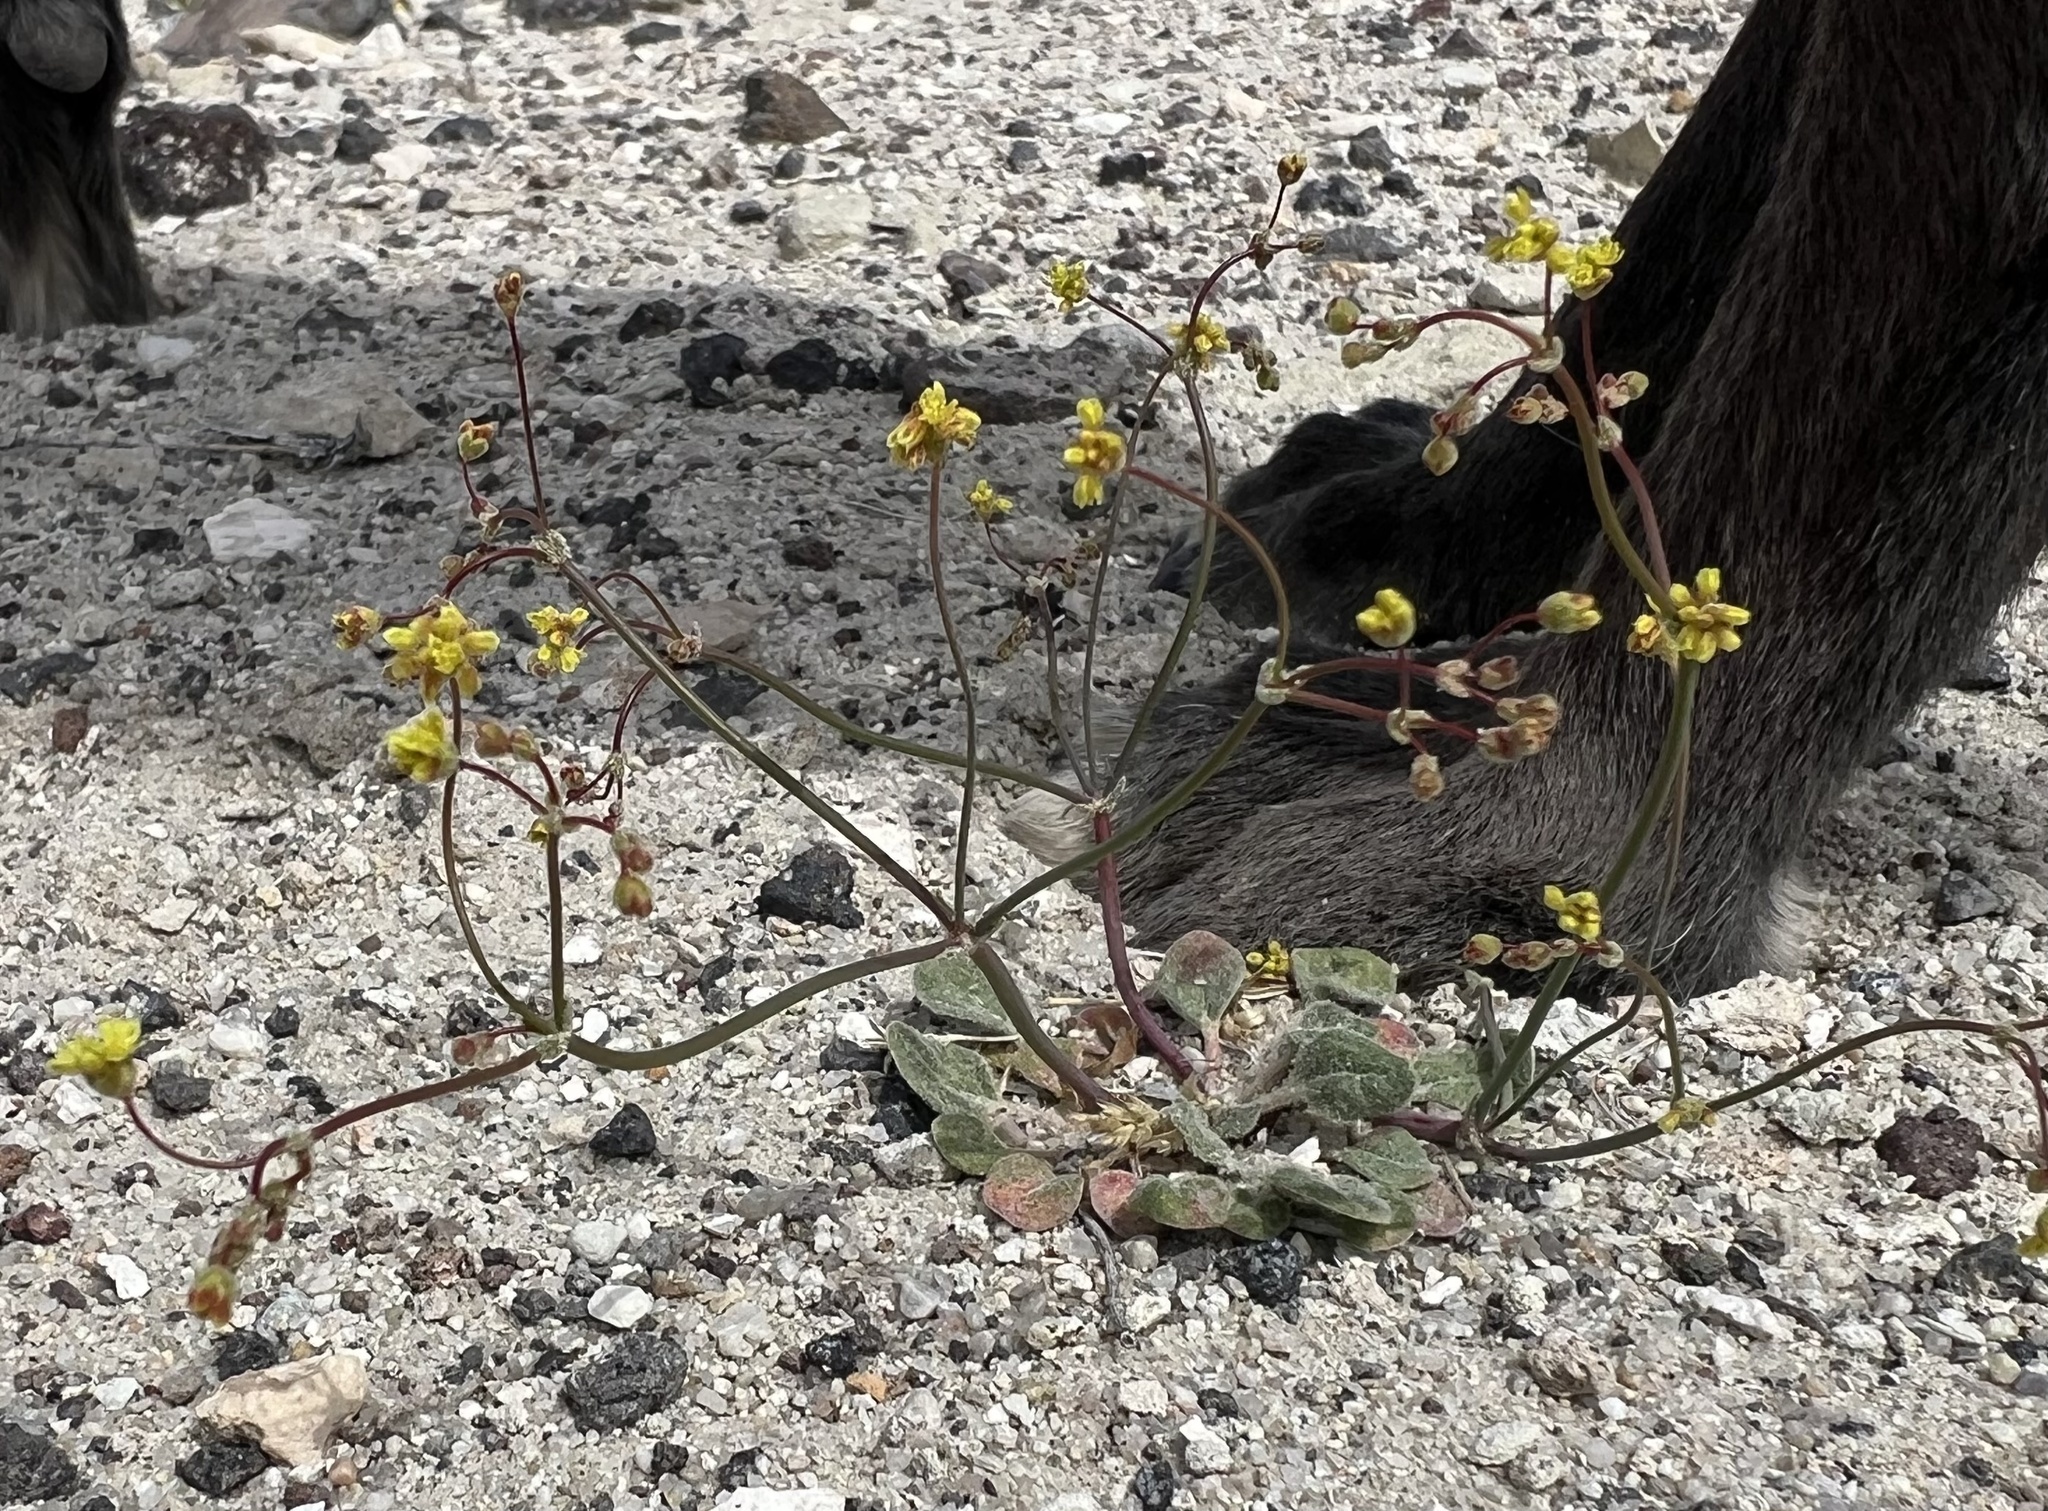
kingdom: Plantae
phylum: Tracheophyta
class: Magnoliopsida
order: Caryophyllales
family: Polygonaceae
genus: Eriogonum
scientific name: Eriogonum pusillum
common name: Yellow turbans
